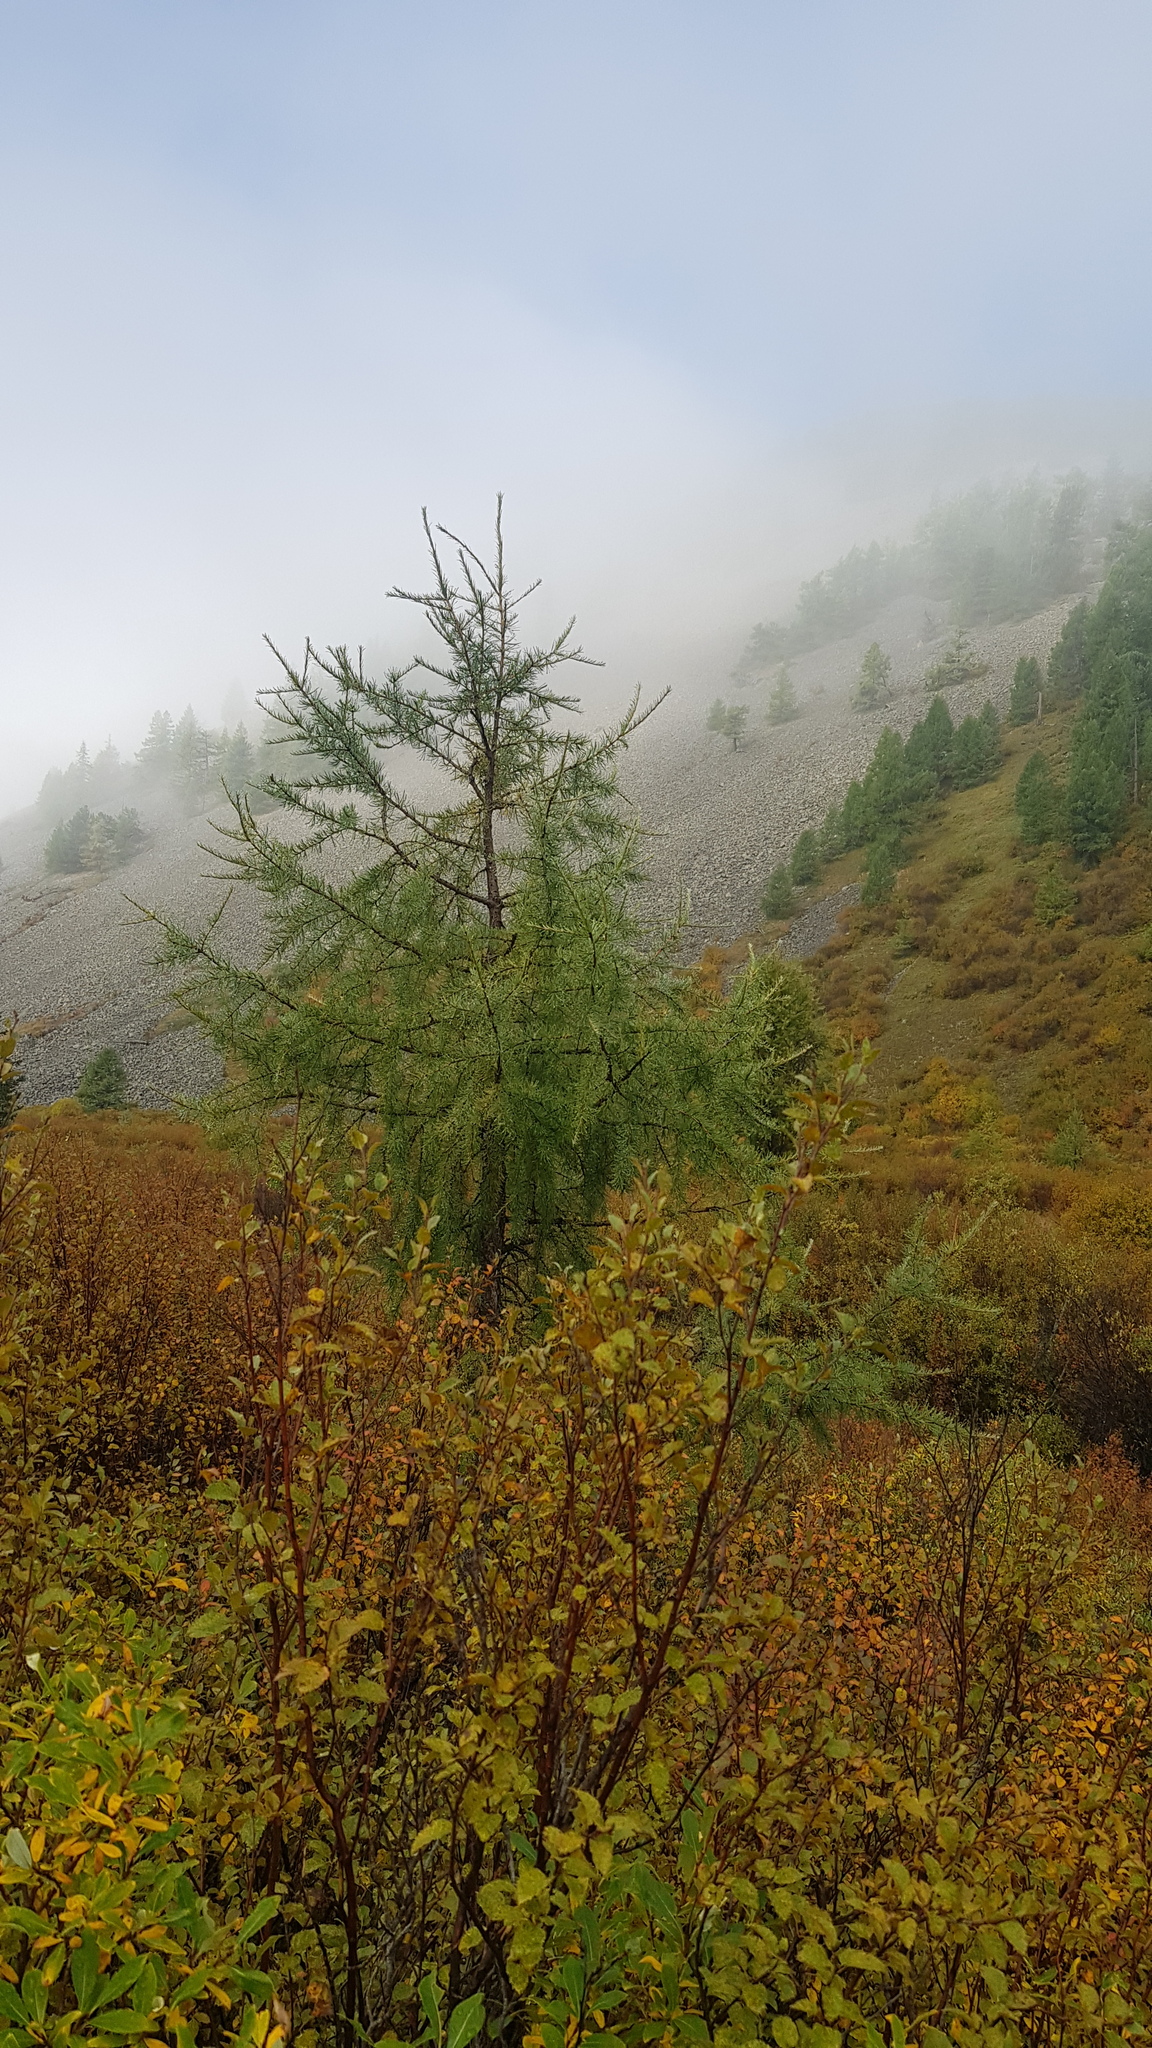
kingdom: Plantae
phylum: Tracheophyta
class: Pinopsida
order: Pinales
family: Pinaceae
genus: Larix
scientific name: Larix sibirica
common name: Siberian larch
